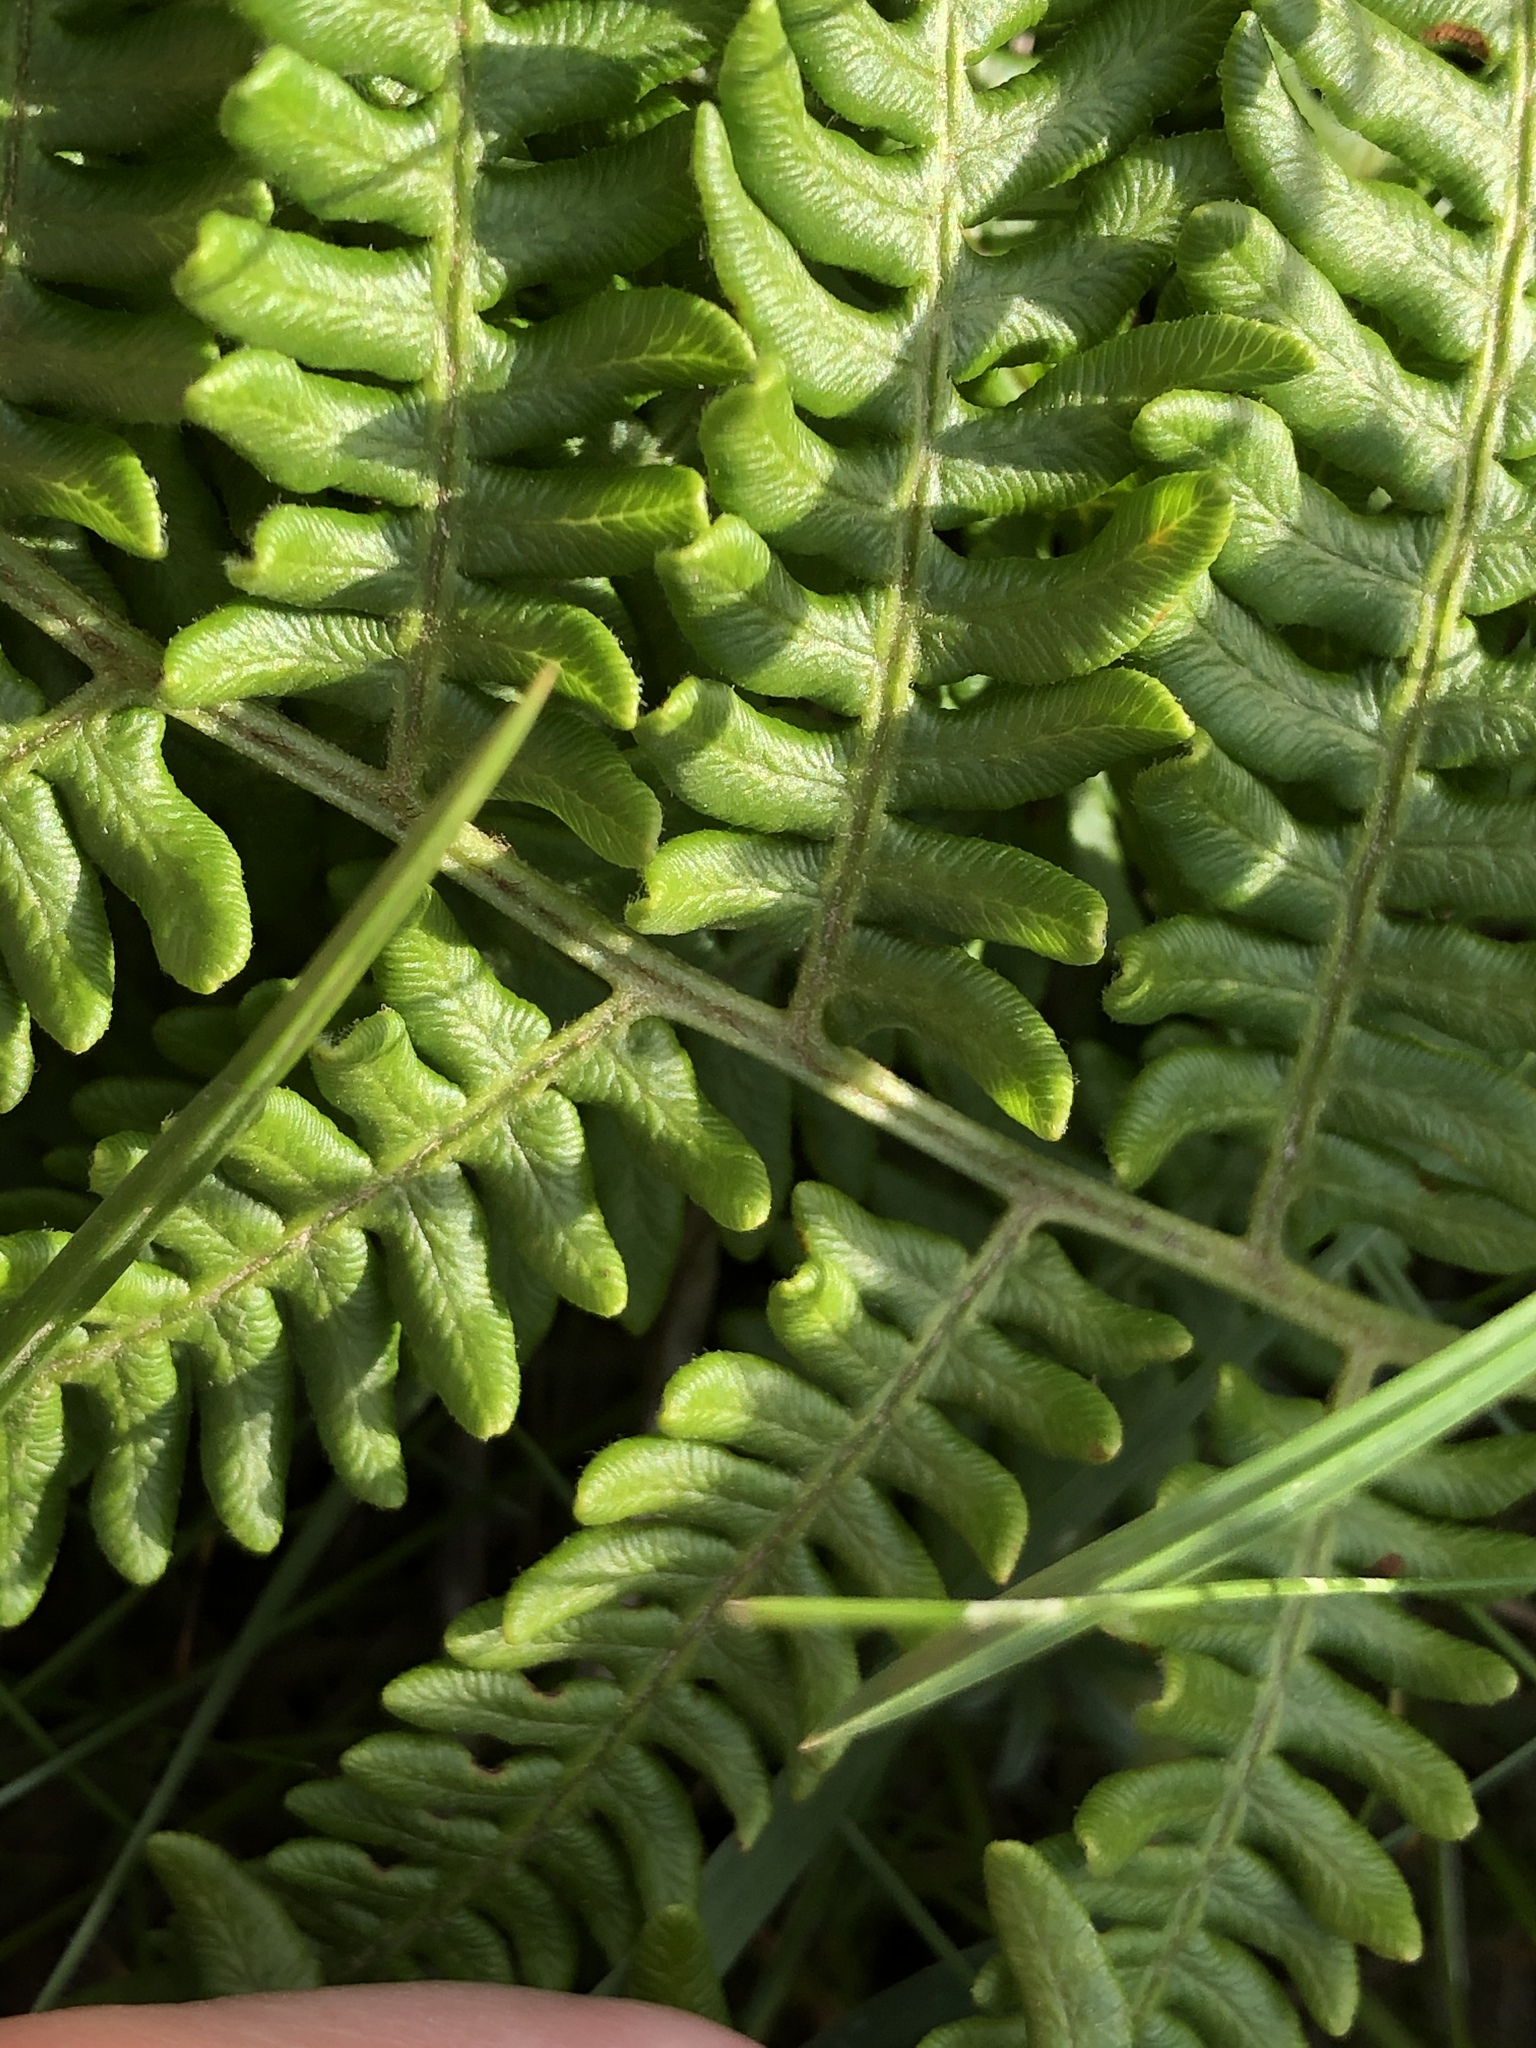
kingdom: Plantae
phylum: Tracheophyta
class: Polypodiopsida
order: Polypodiales
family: Dennstaedtiaceae
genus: Pteridium
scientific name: Pteridium aquilinum
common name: Bracken
